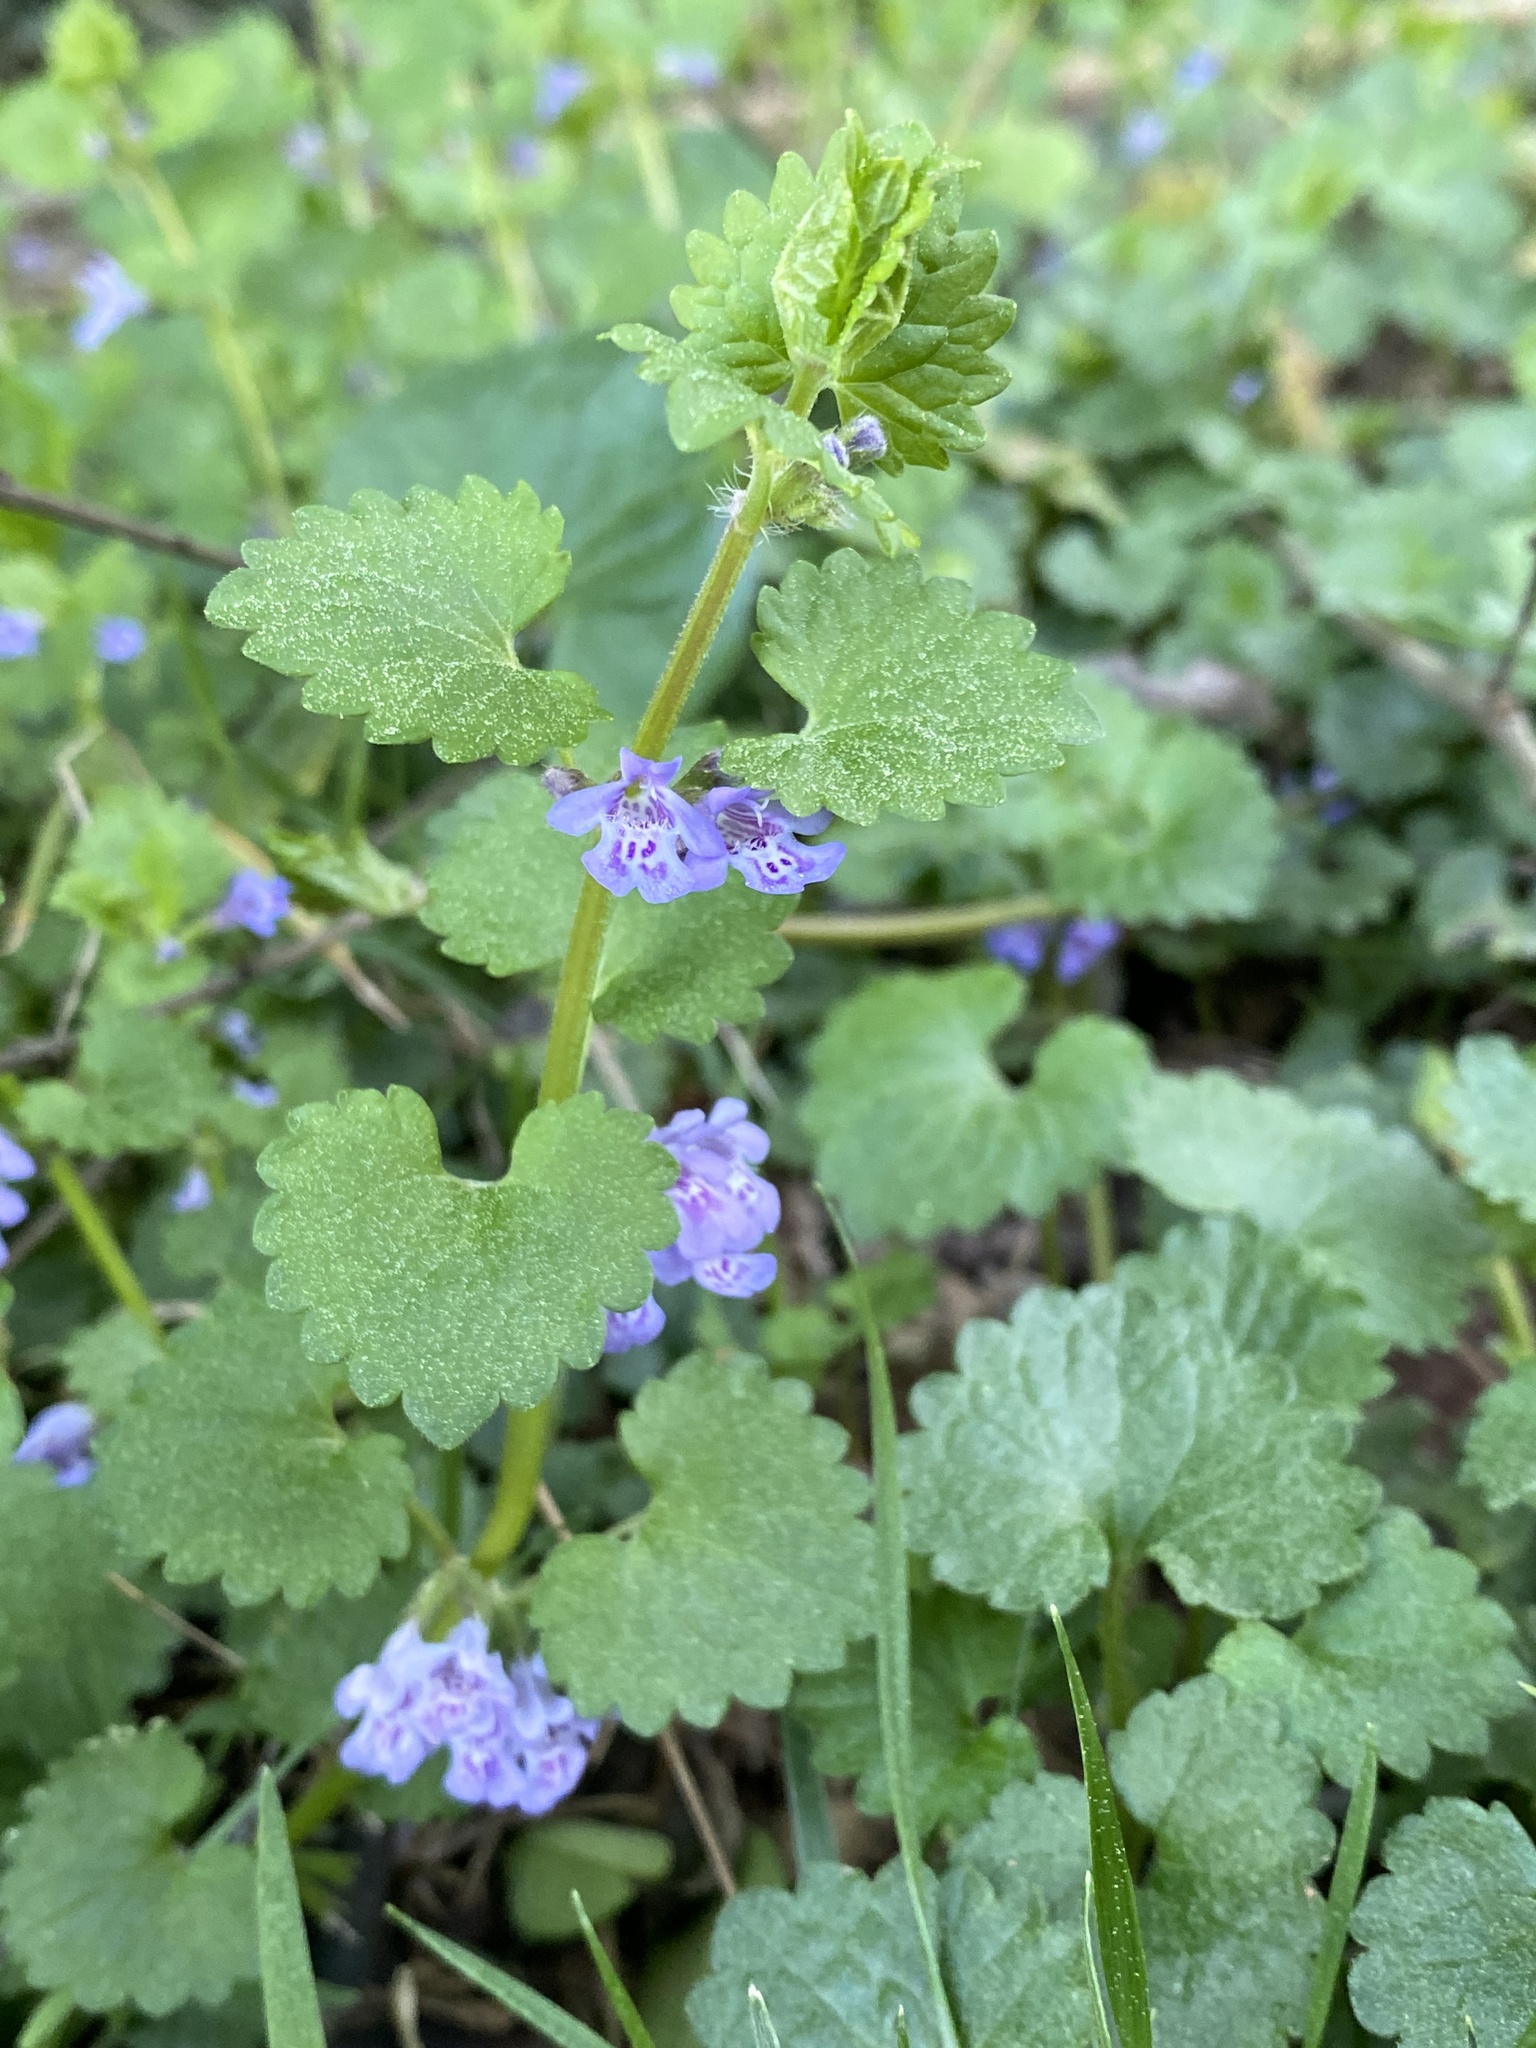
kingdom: Plantae
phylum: Tracheophyta
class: Magnoliopsida
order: Lamiales
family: Lamiaceae
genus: Glechoma
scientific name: Glechoma hederacea
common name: Ground ivy
